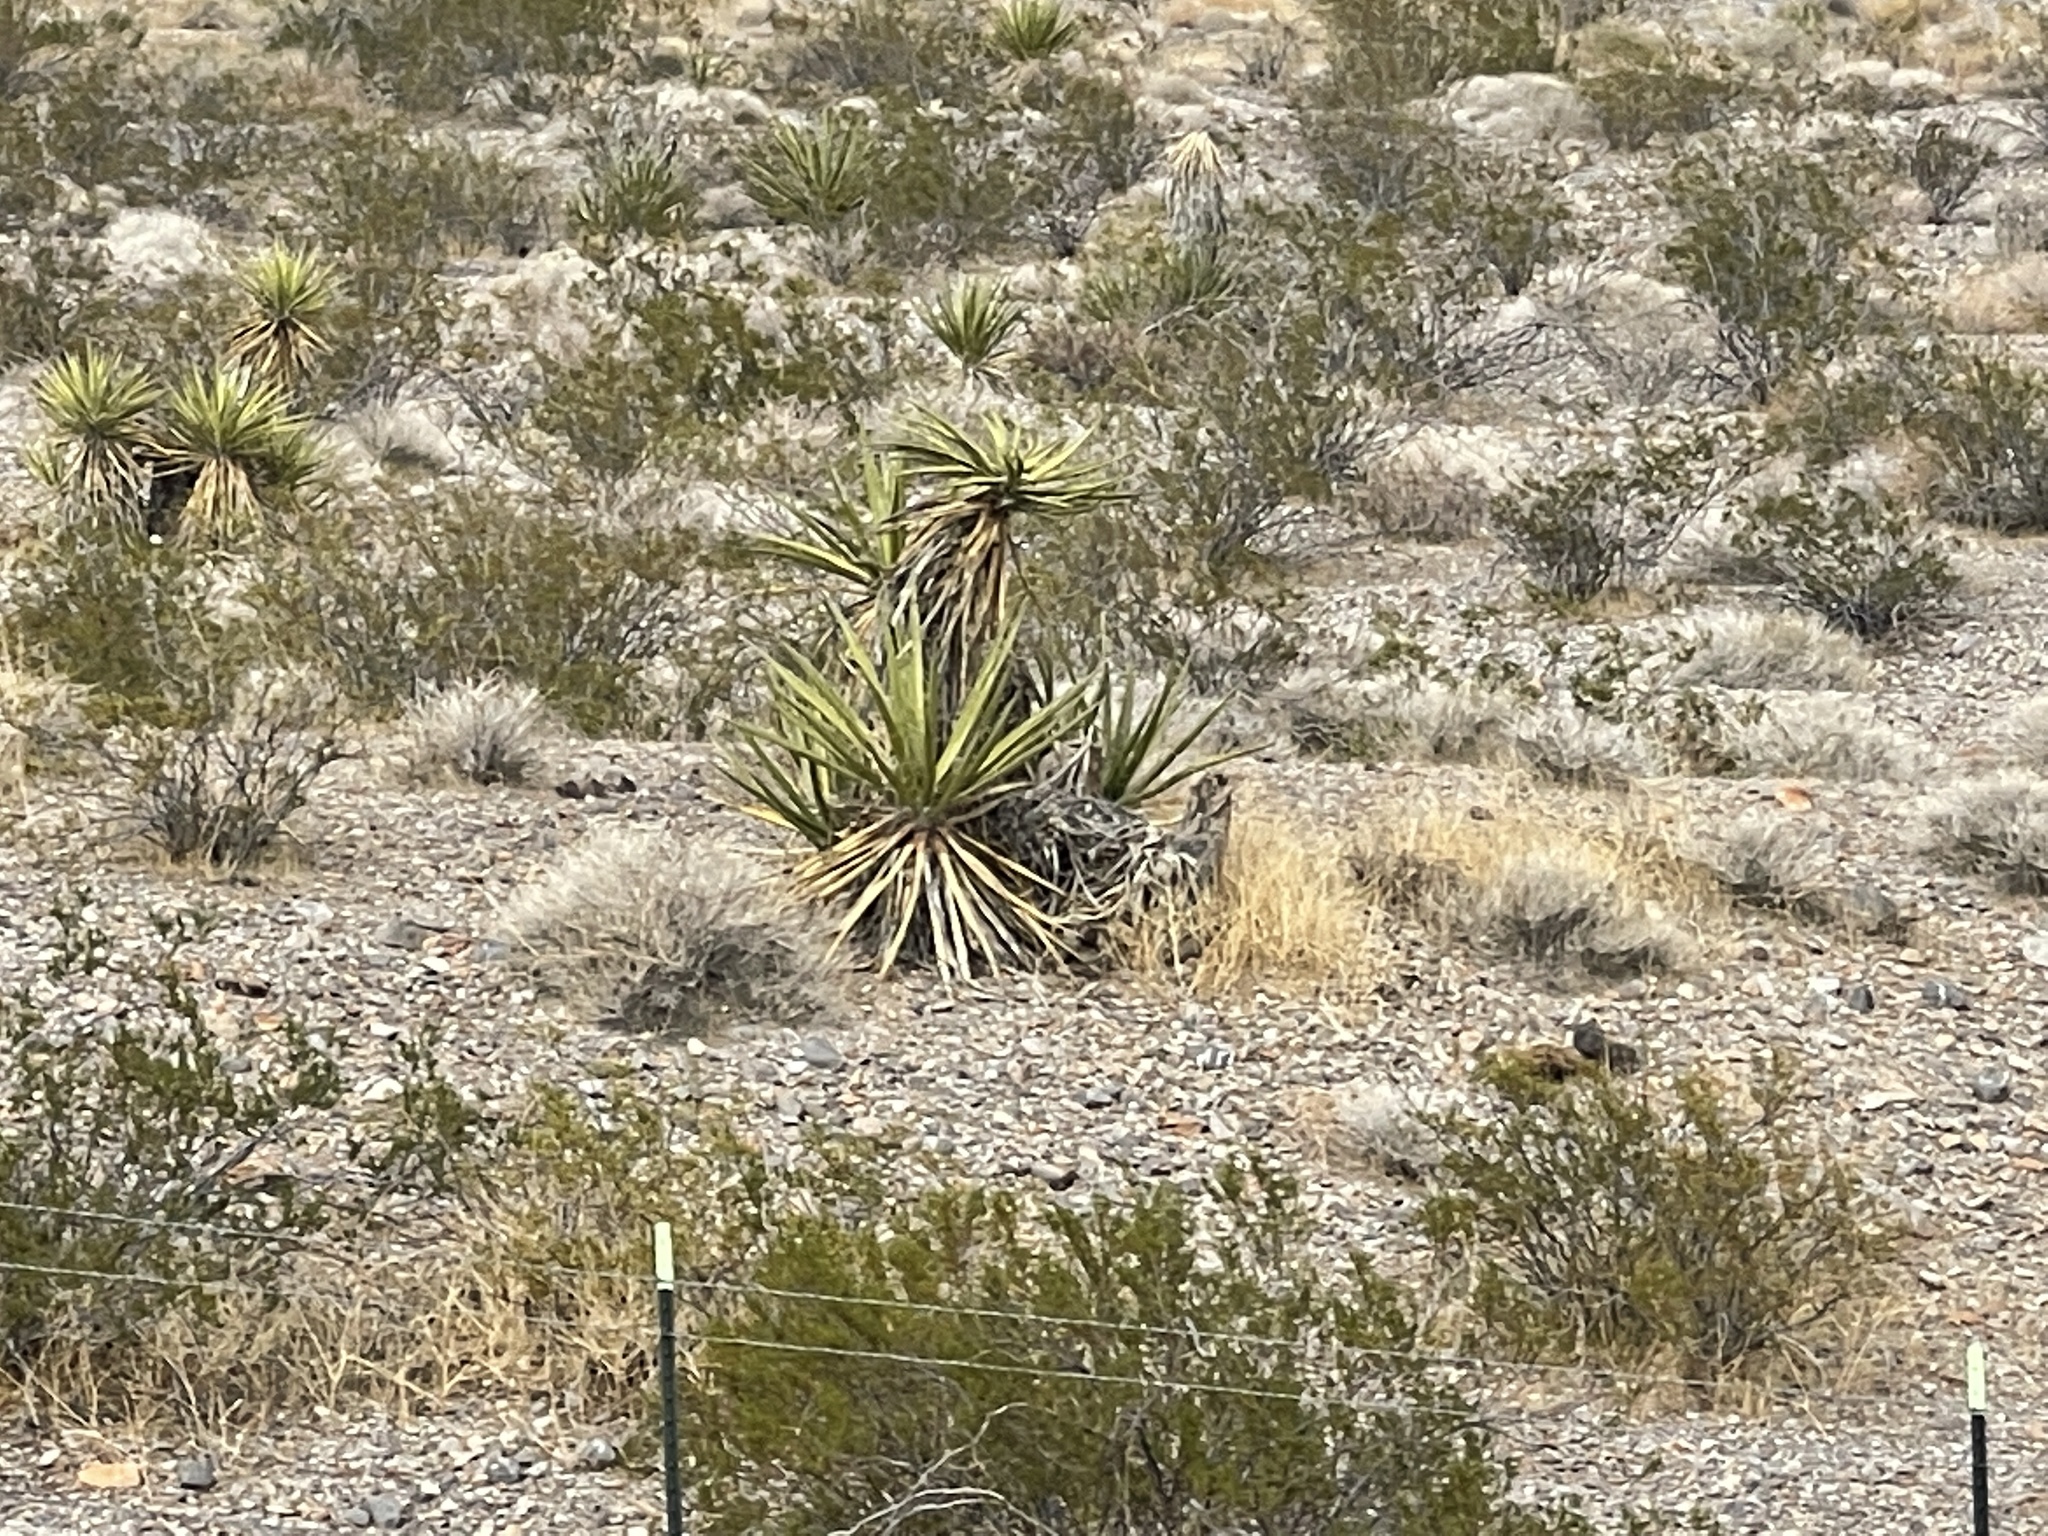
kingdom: Plantae
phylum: Tracheophyta
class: Liliopsida
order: Asparagales
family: Asparagaceae
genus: Yucca
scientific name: Yucca schidigera
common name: Mojave yucca
